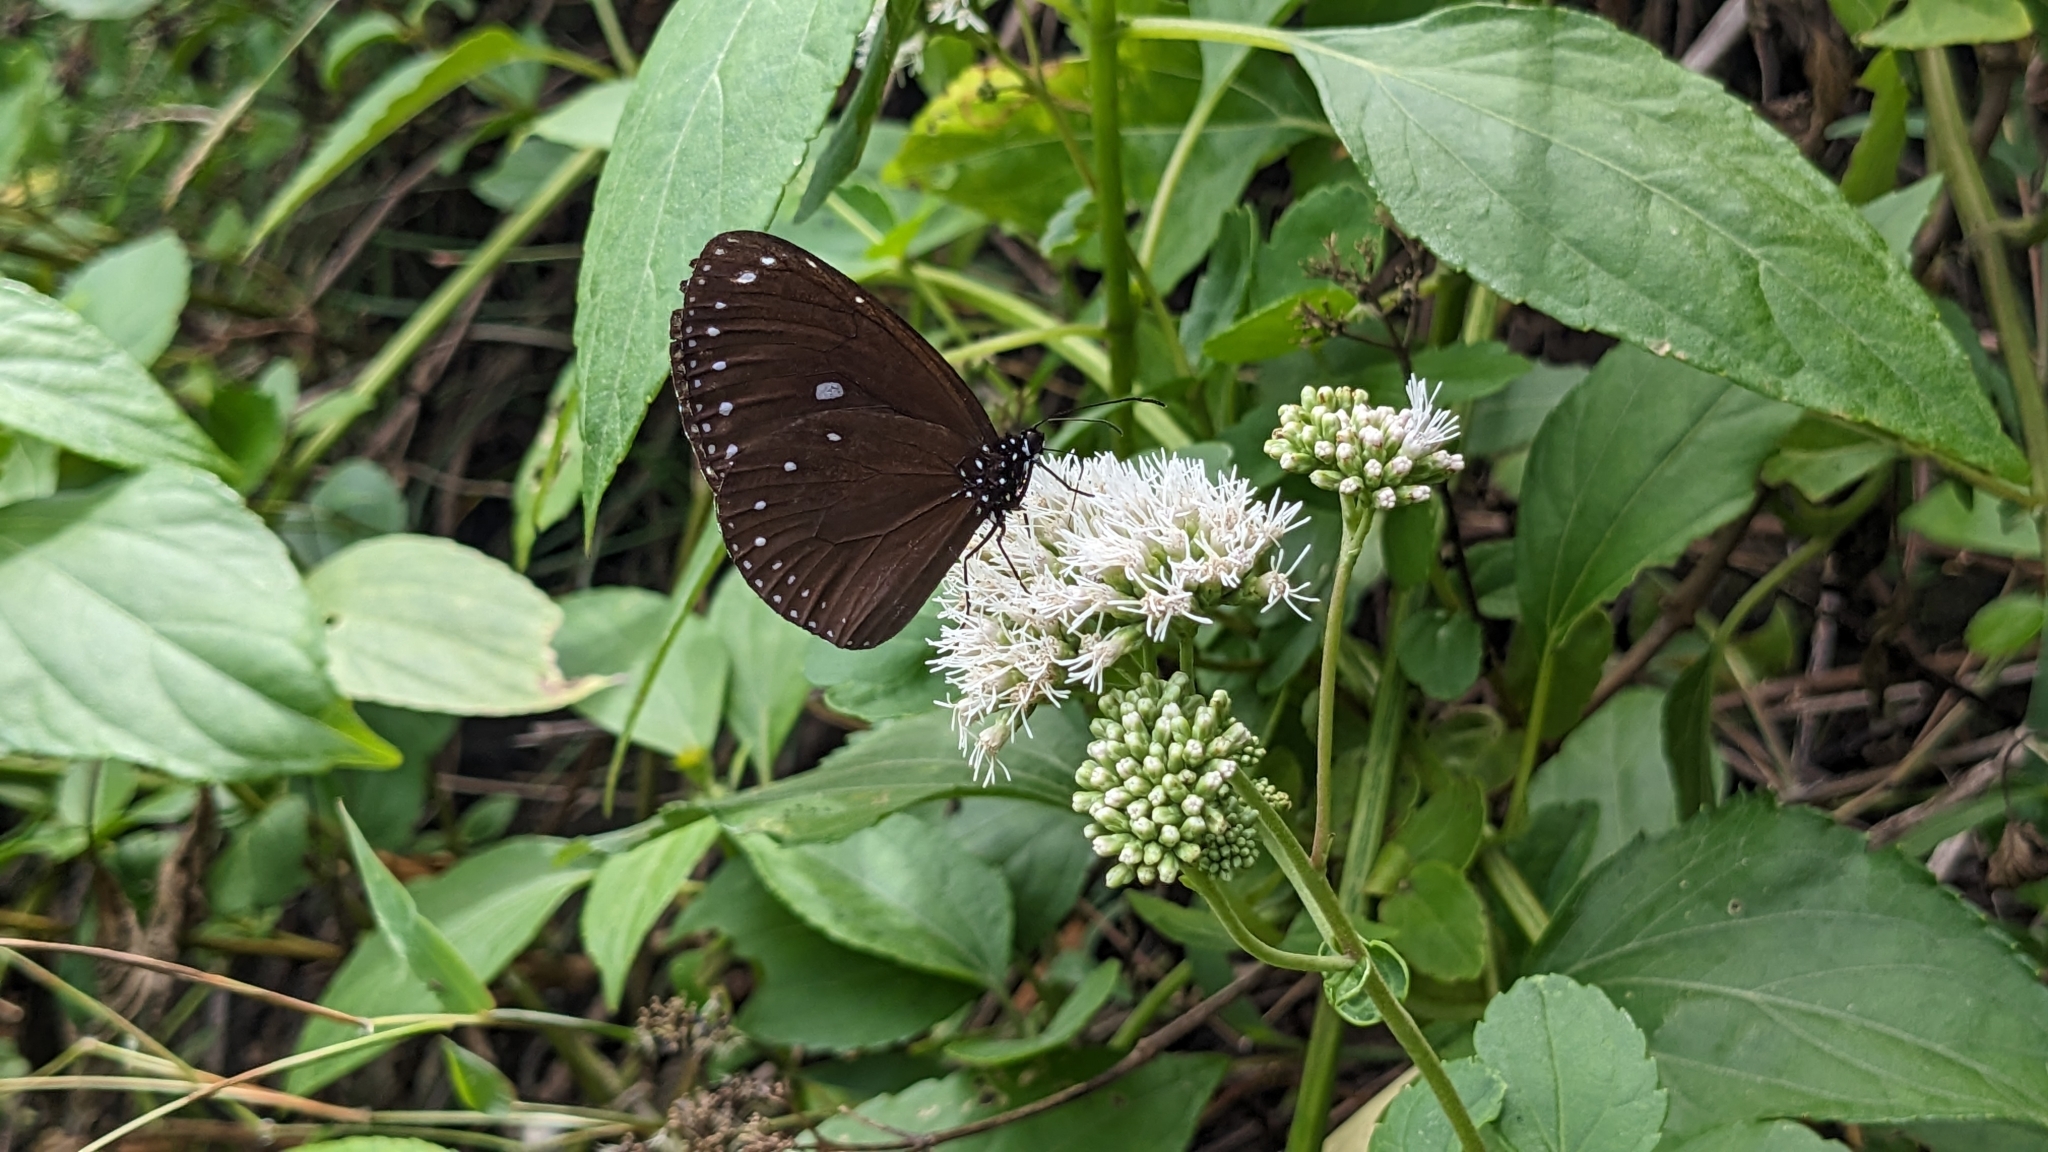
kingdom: Animalia
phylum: Arthropoda
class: Insecta
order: Lepidoptera
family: Nymphalidae
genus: Euploea
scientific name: Euploea tulliolus
